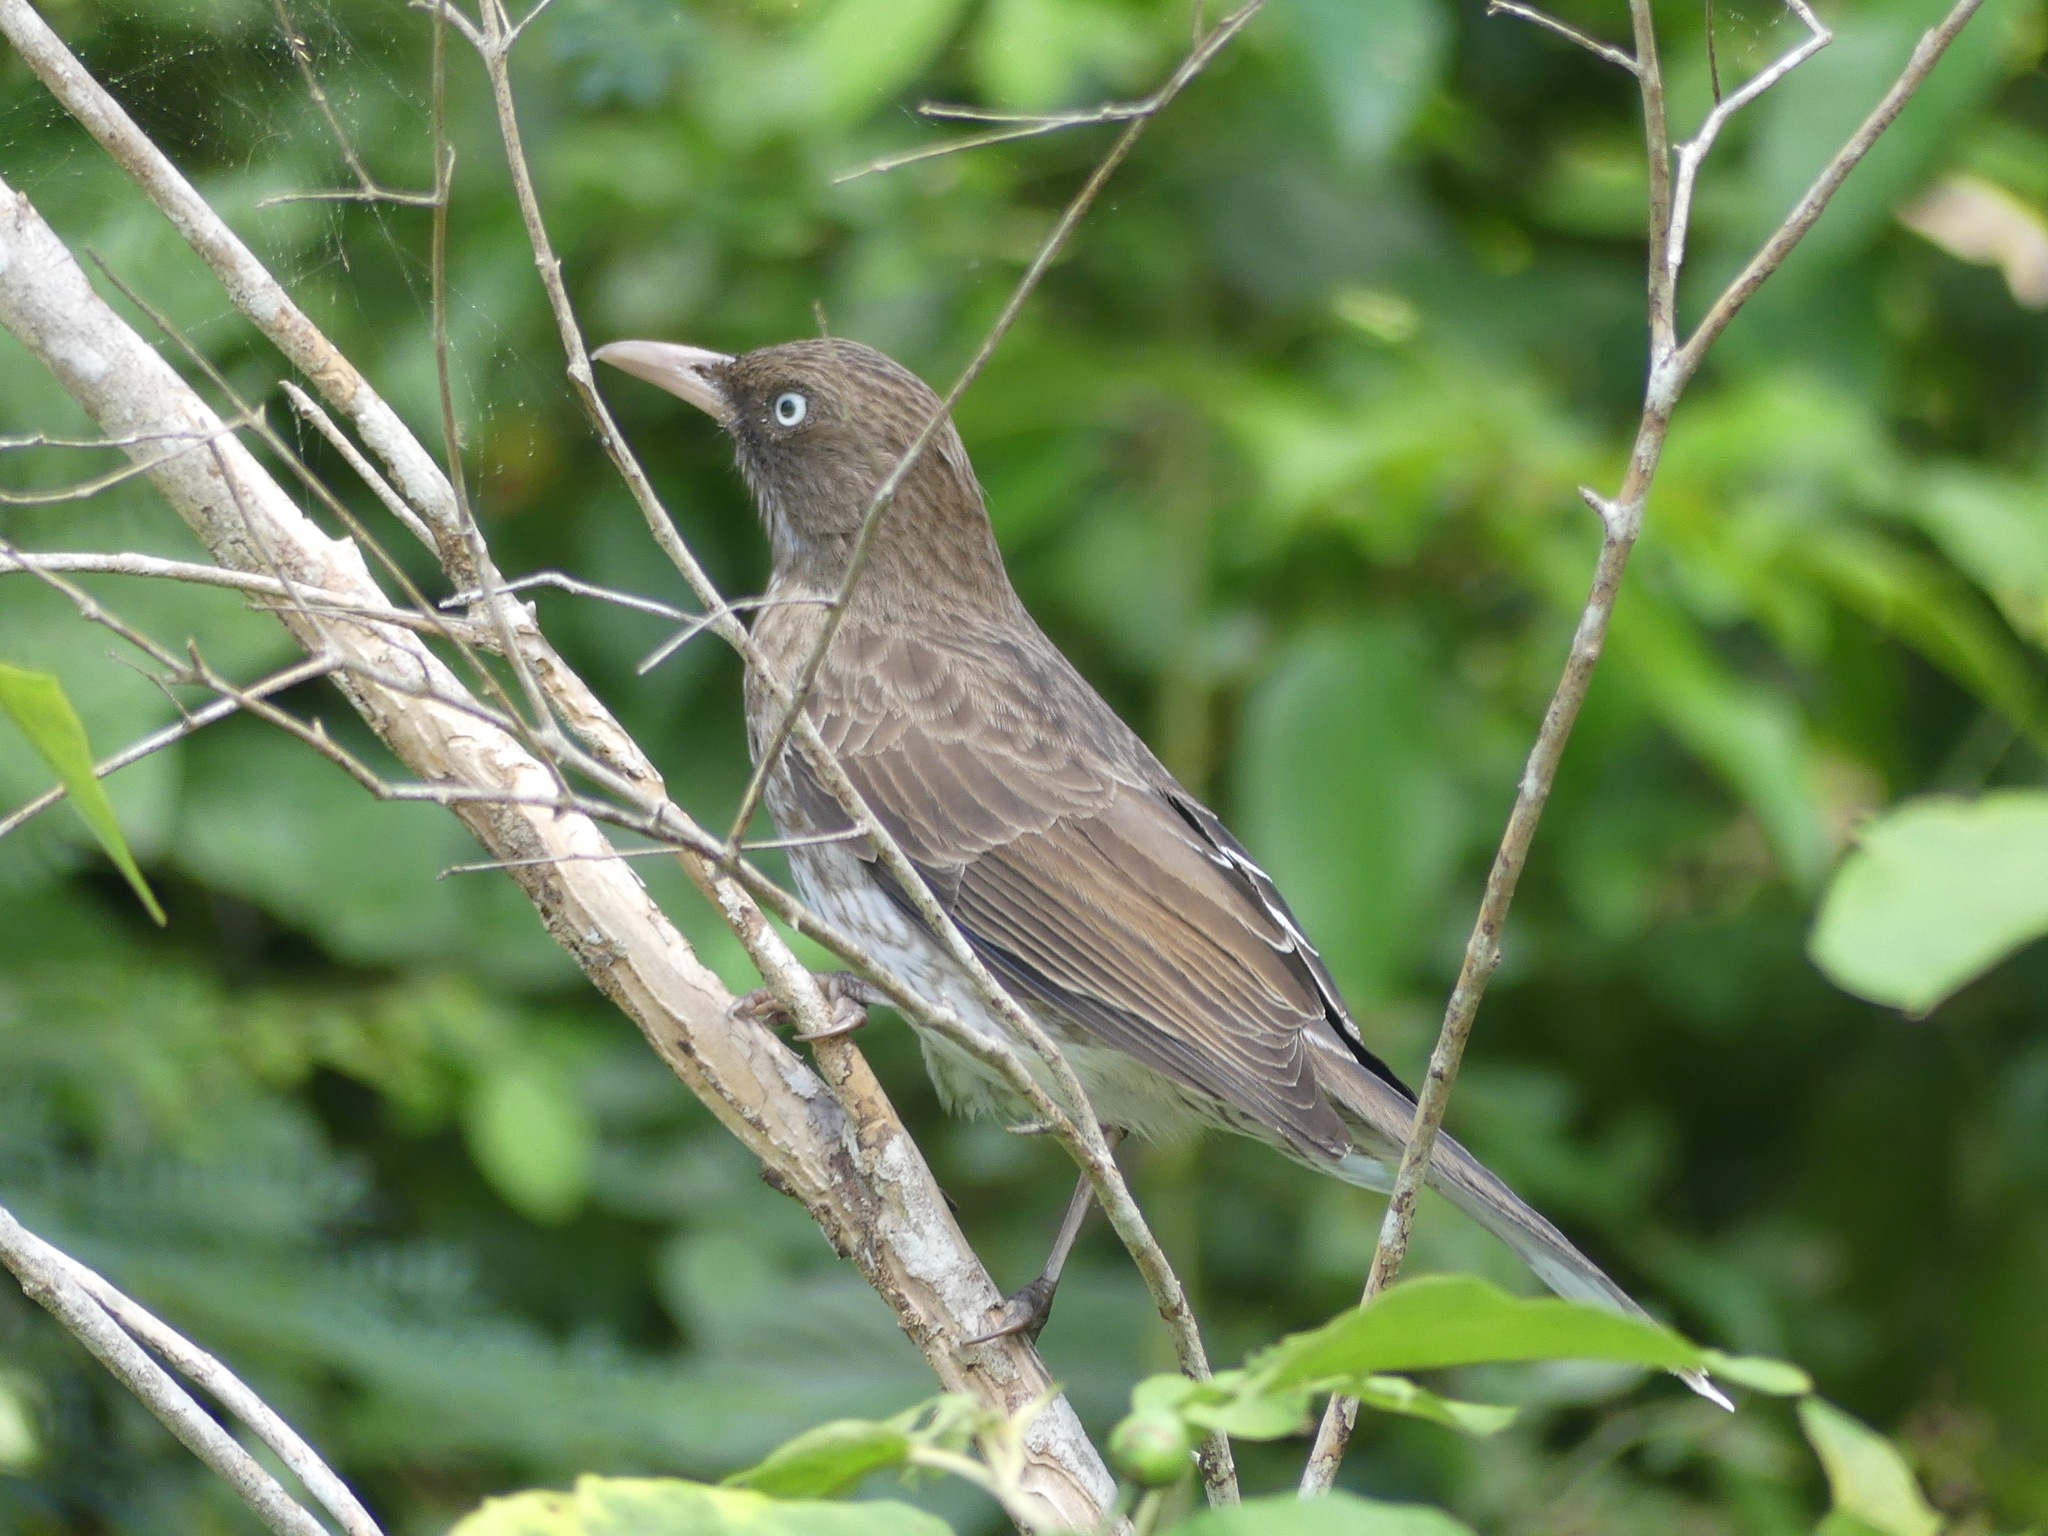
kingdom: Animalia
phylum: Chordata
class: Aves
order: Passeriformes
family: Mimidae
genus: Margarops
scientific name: Margarops fuscatus
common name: Pearly-eyed thrasher
